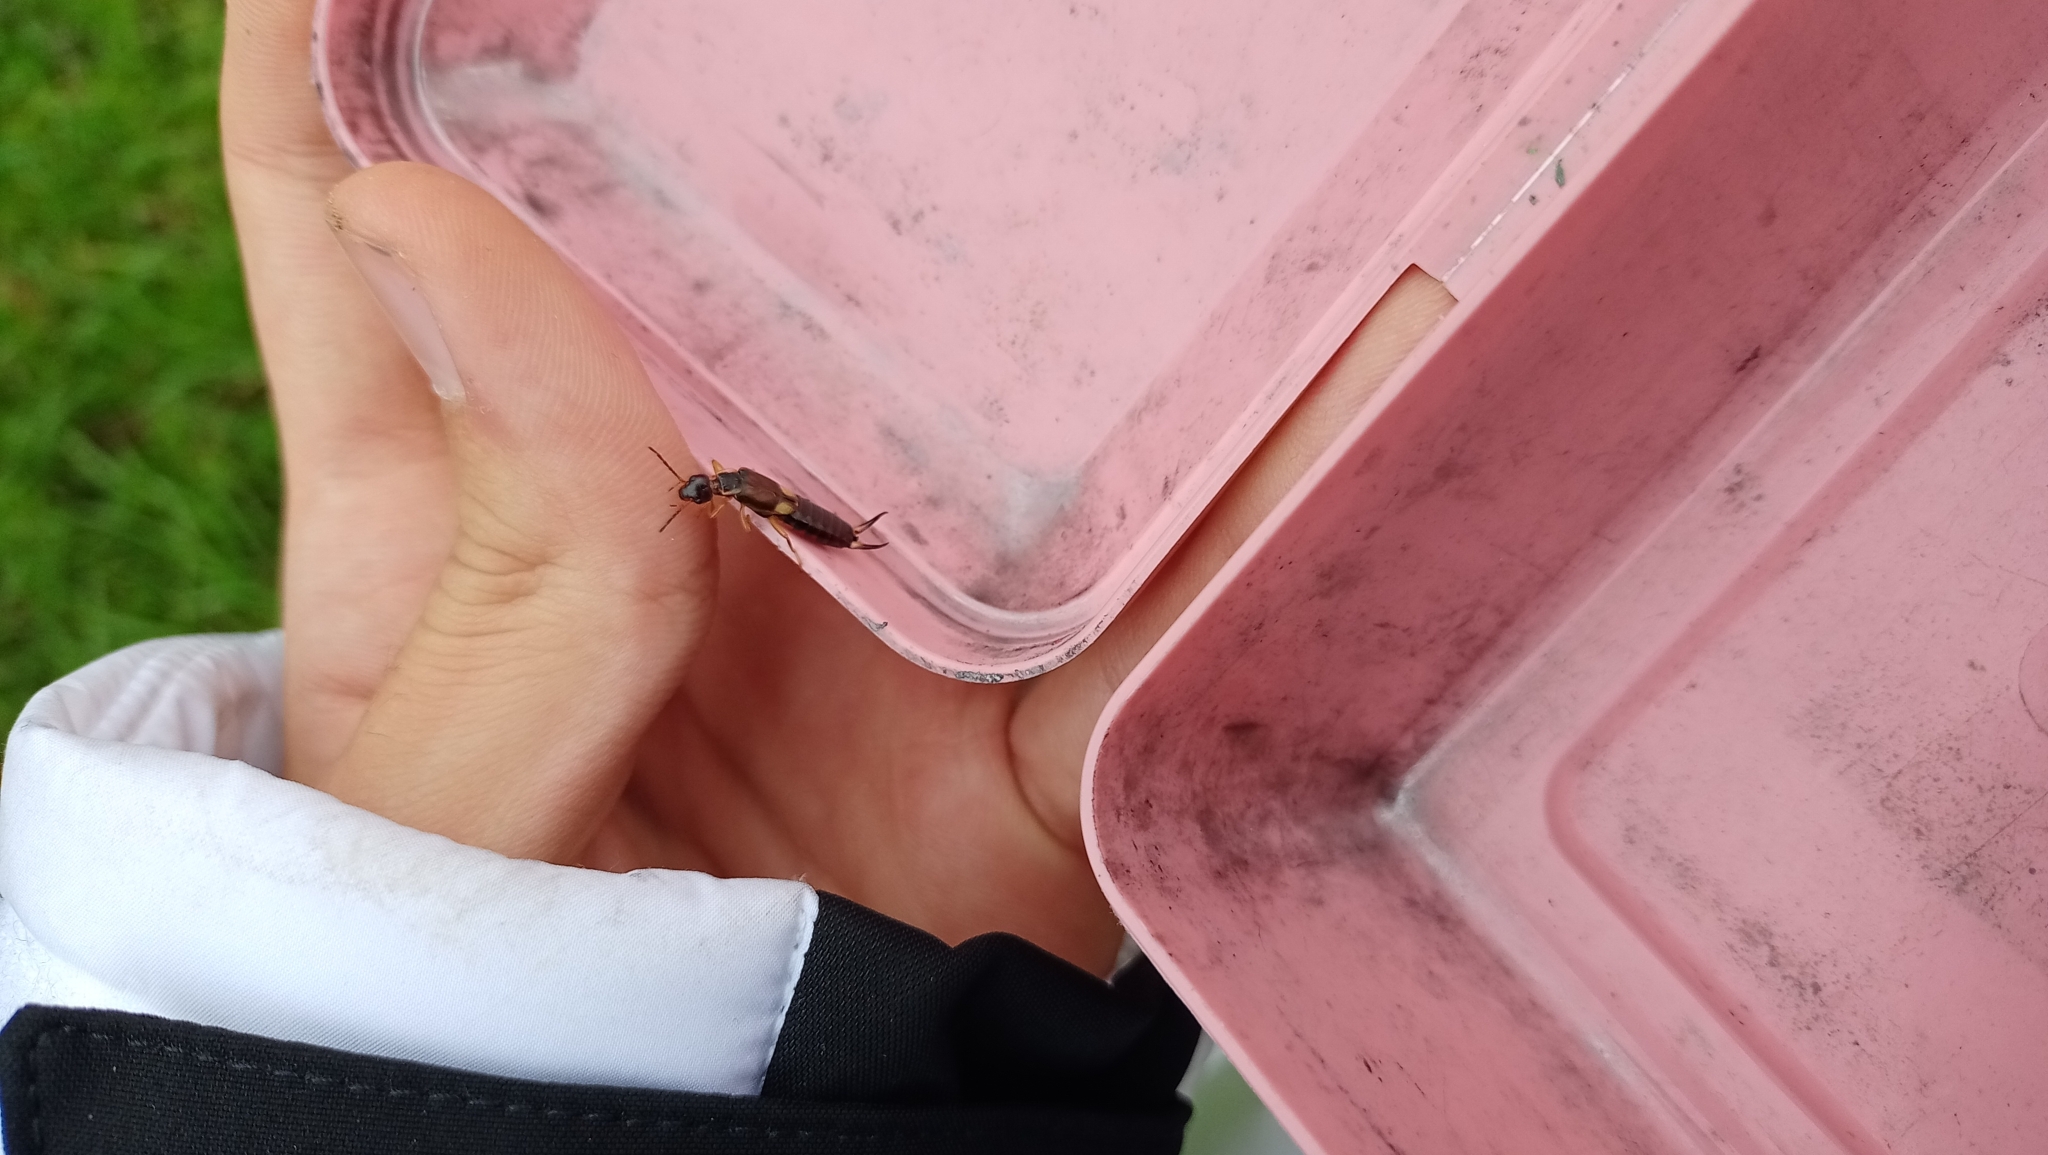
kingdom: Animalia
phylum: Arthropoda
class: Insecta
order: Dermaptera
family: Forficulidae
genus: Forficula
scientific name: Forficula lurida
